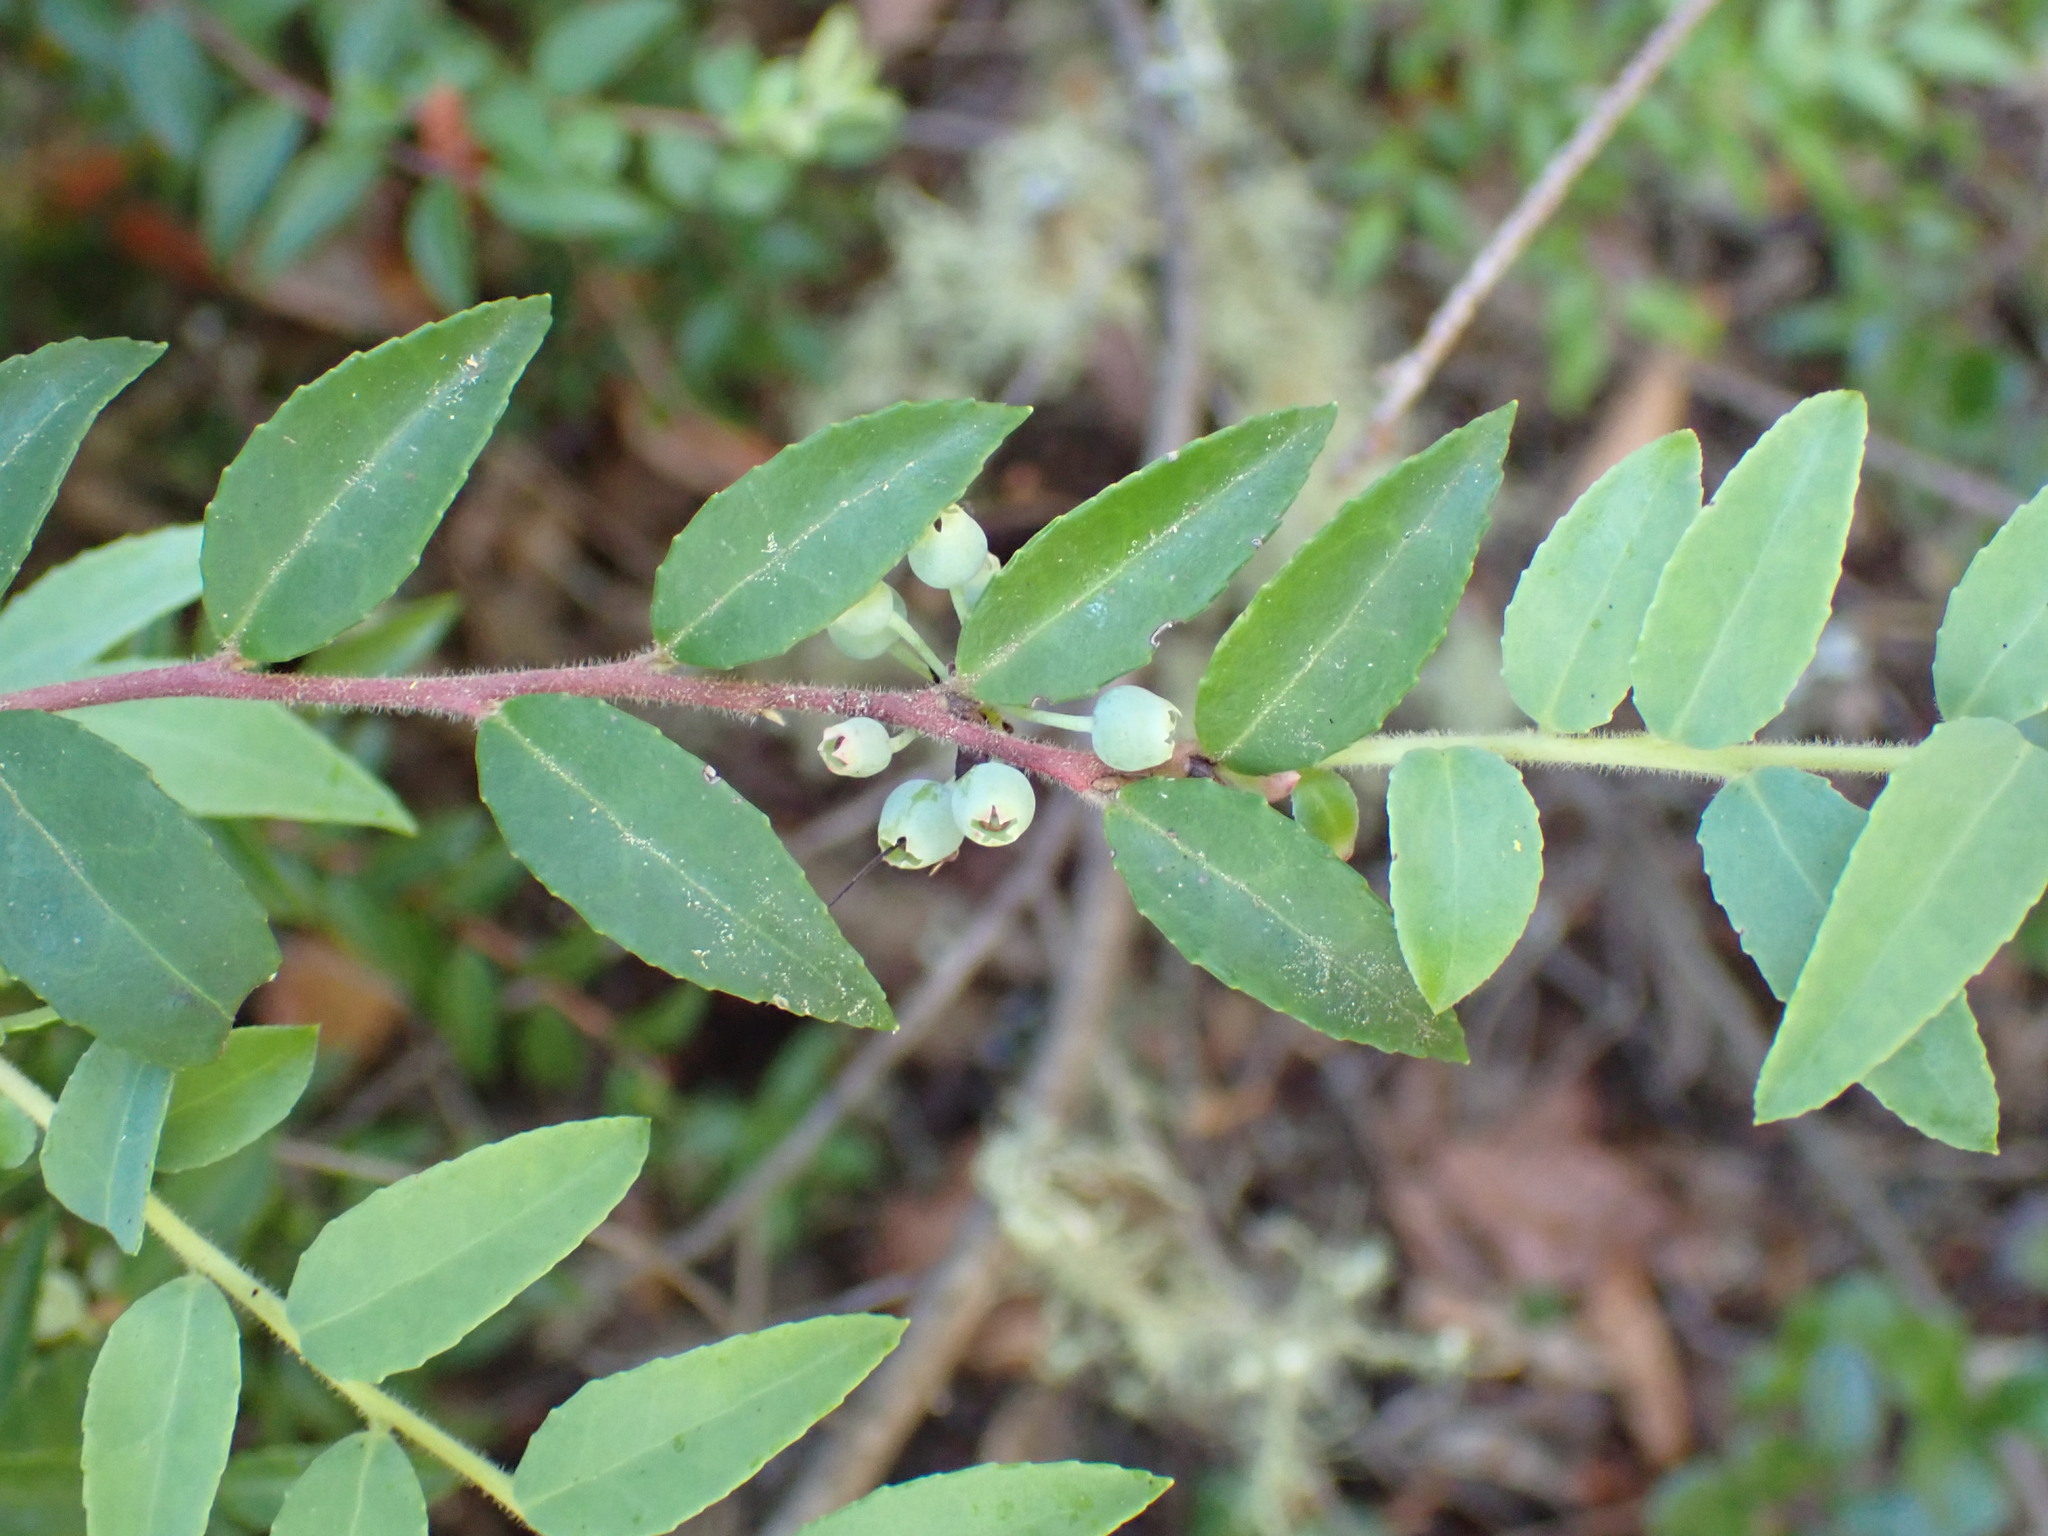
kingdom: Plantae
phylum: Tracheophyta
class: Magnoliopsida
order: Ericales
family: Ericaceae
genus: Vaccinium
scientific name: Vaccinium ovatum
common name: California-huckleberry
